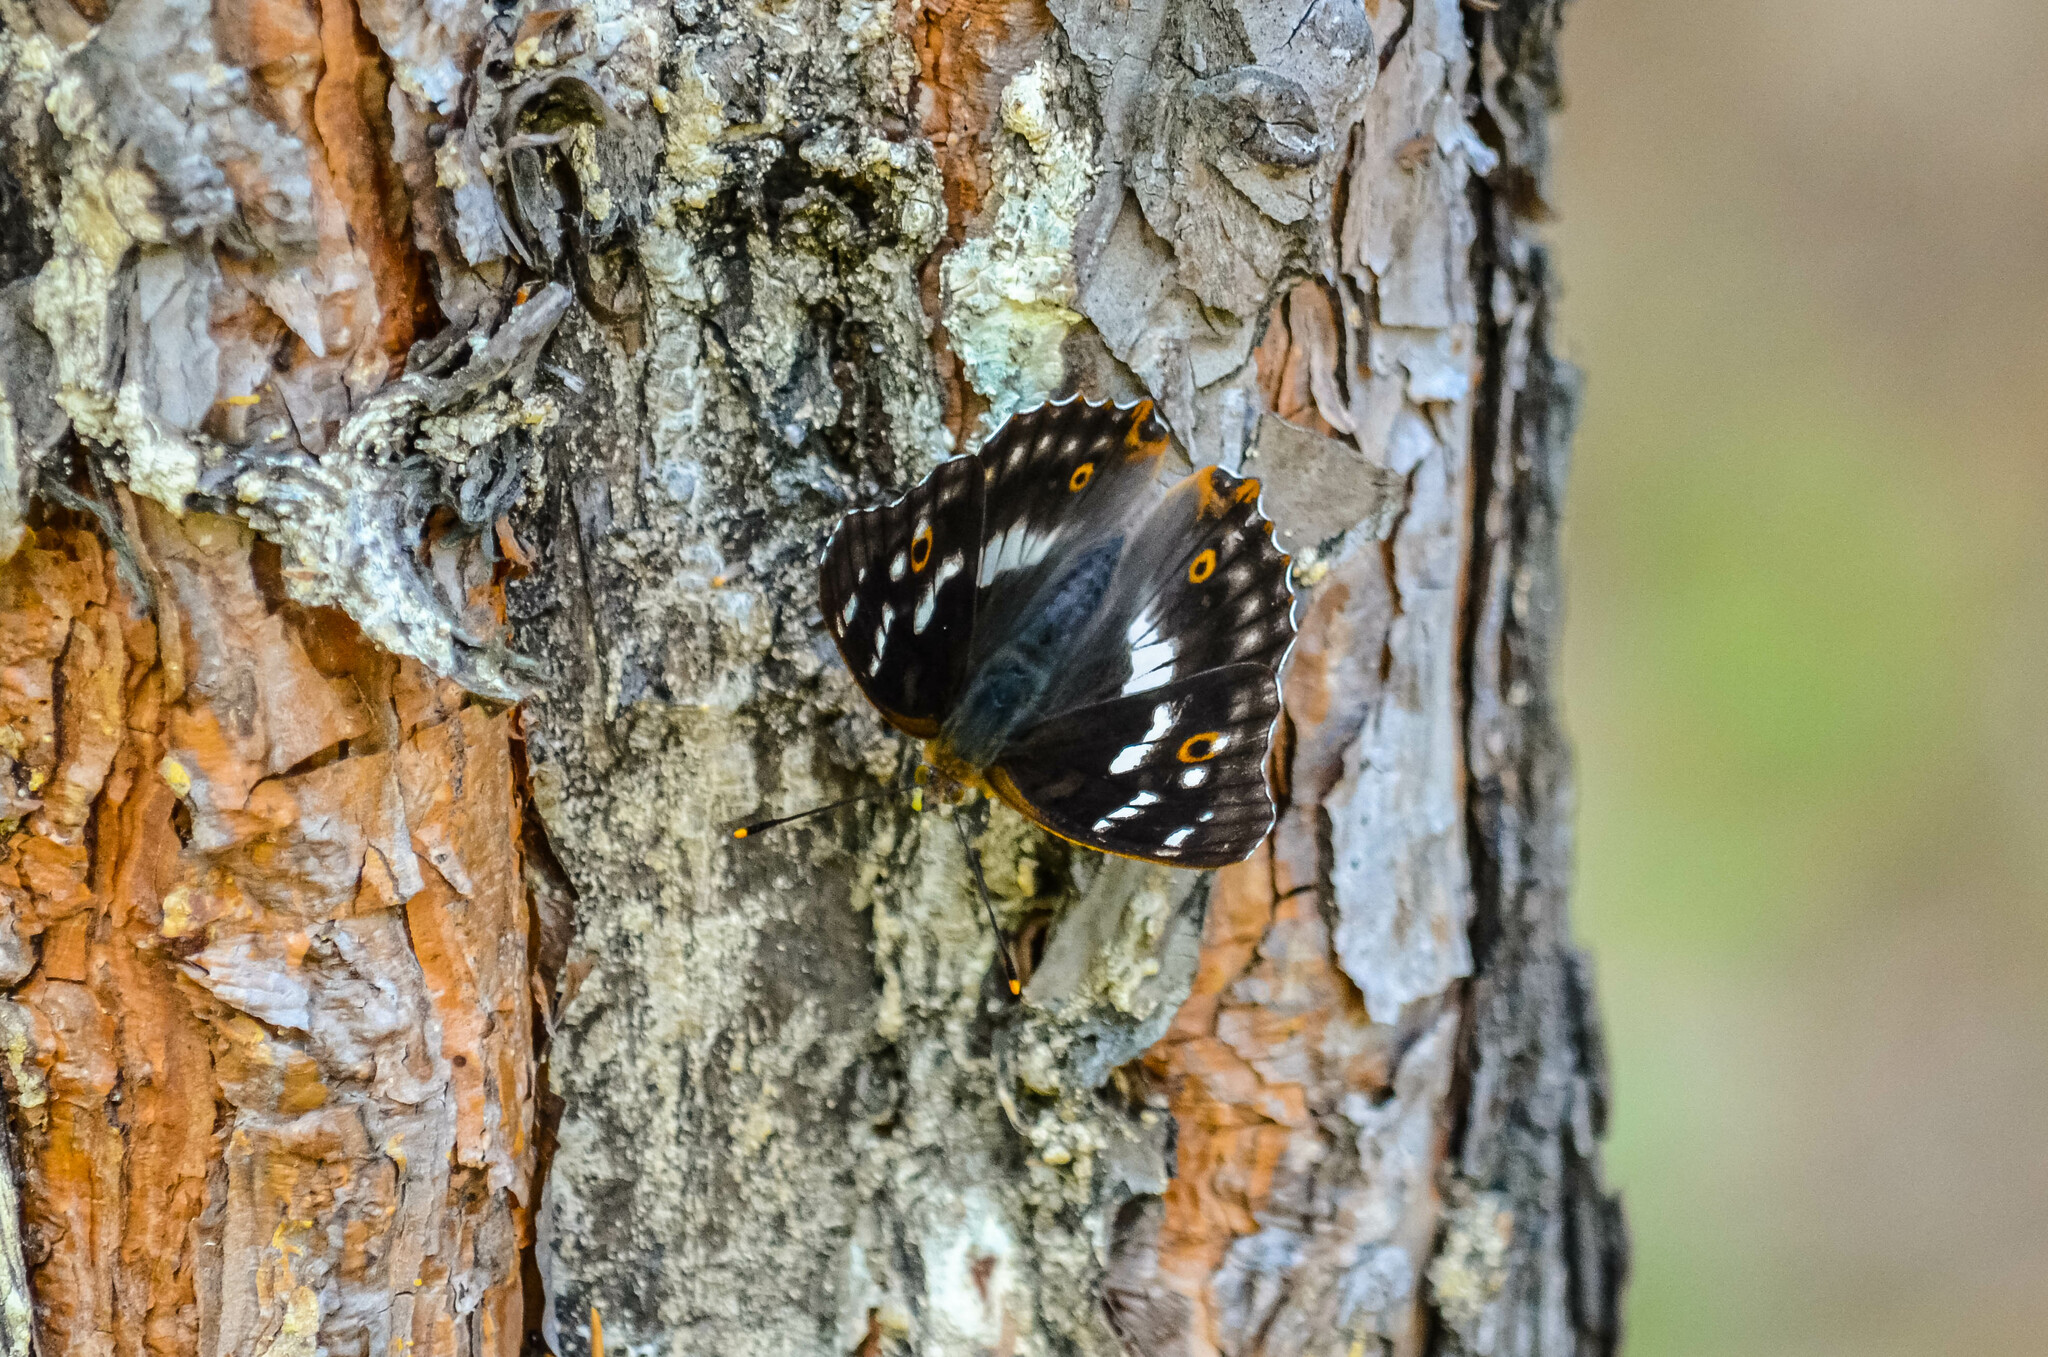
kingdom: Animalia
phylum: Arthropoda
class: Insecta
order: Lepidoptera
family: Nymphalidae
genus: Apatura
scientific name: Apatura ilia
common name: Lesser purple emperor
